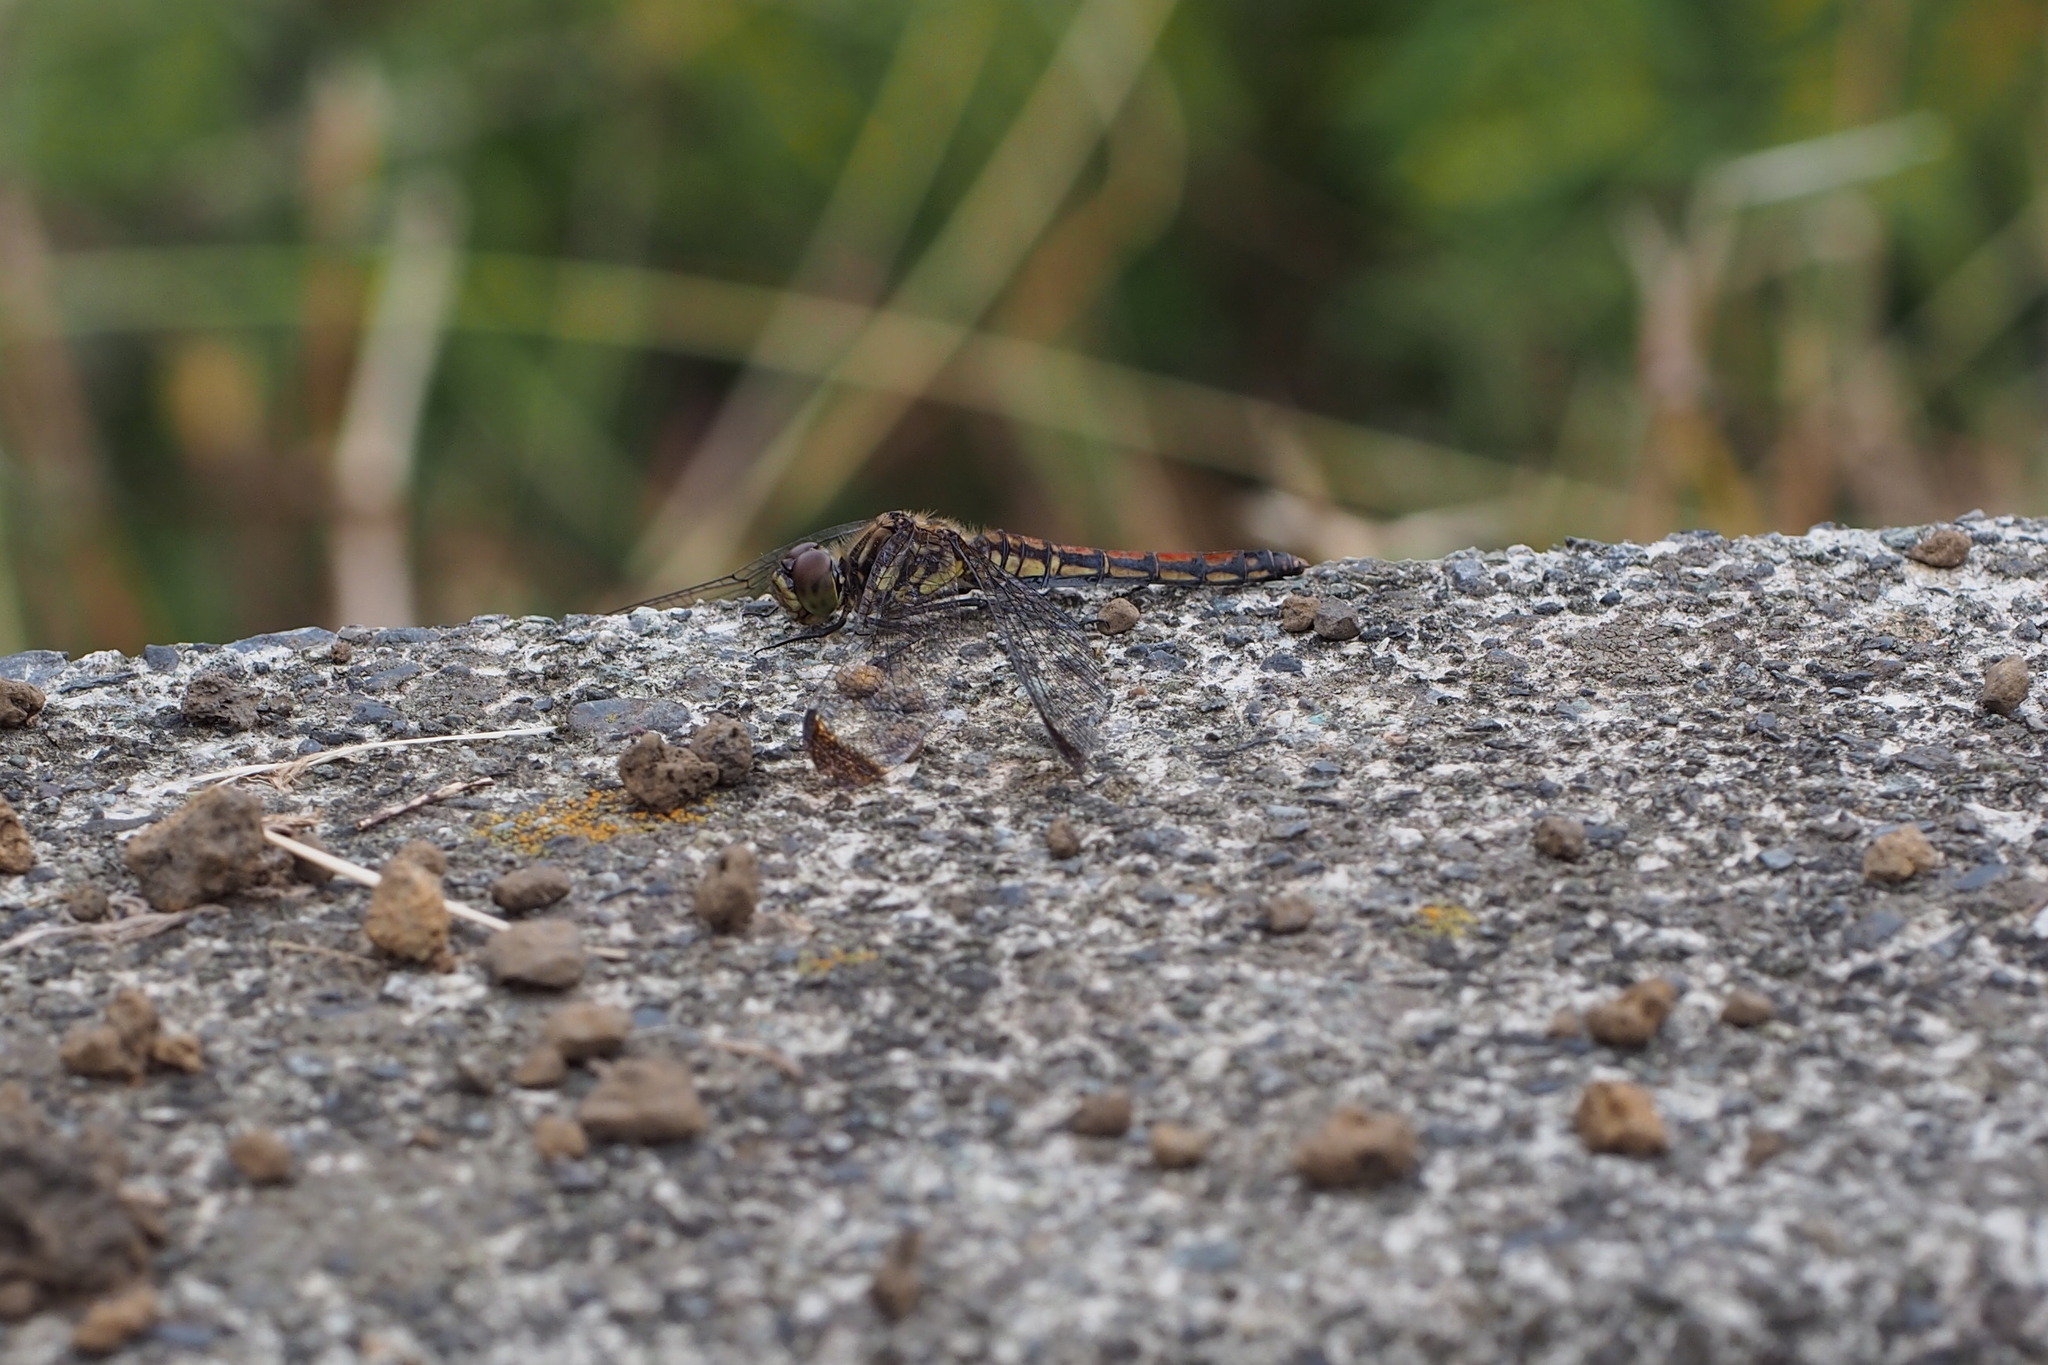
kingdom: Animalia
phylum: Arthropoda
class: Insecta
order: Odonata
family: Libellulidae
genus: Sympetrum
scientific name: Sympetrum baccha
